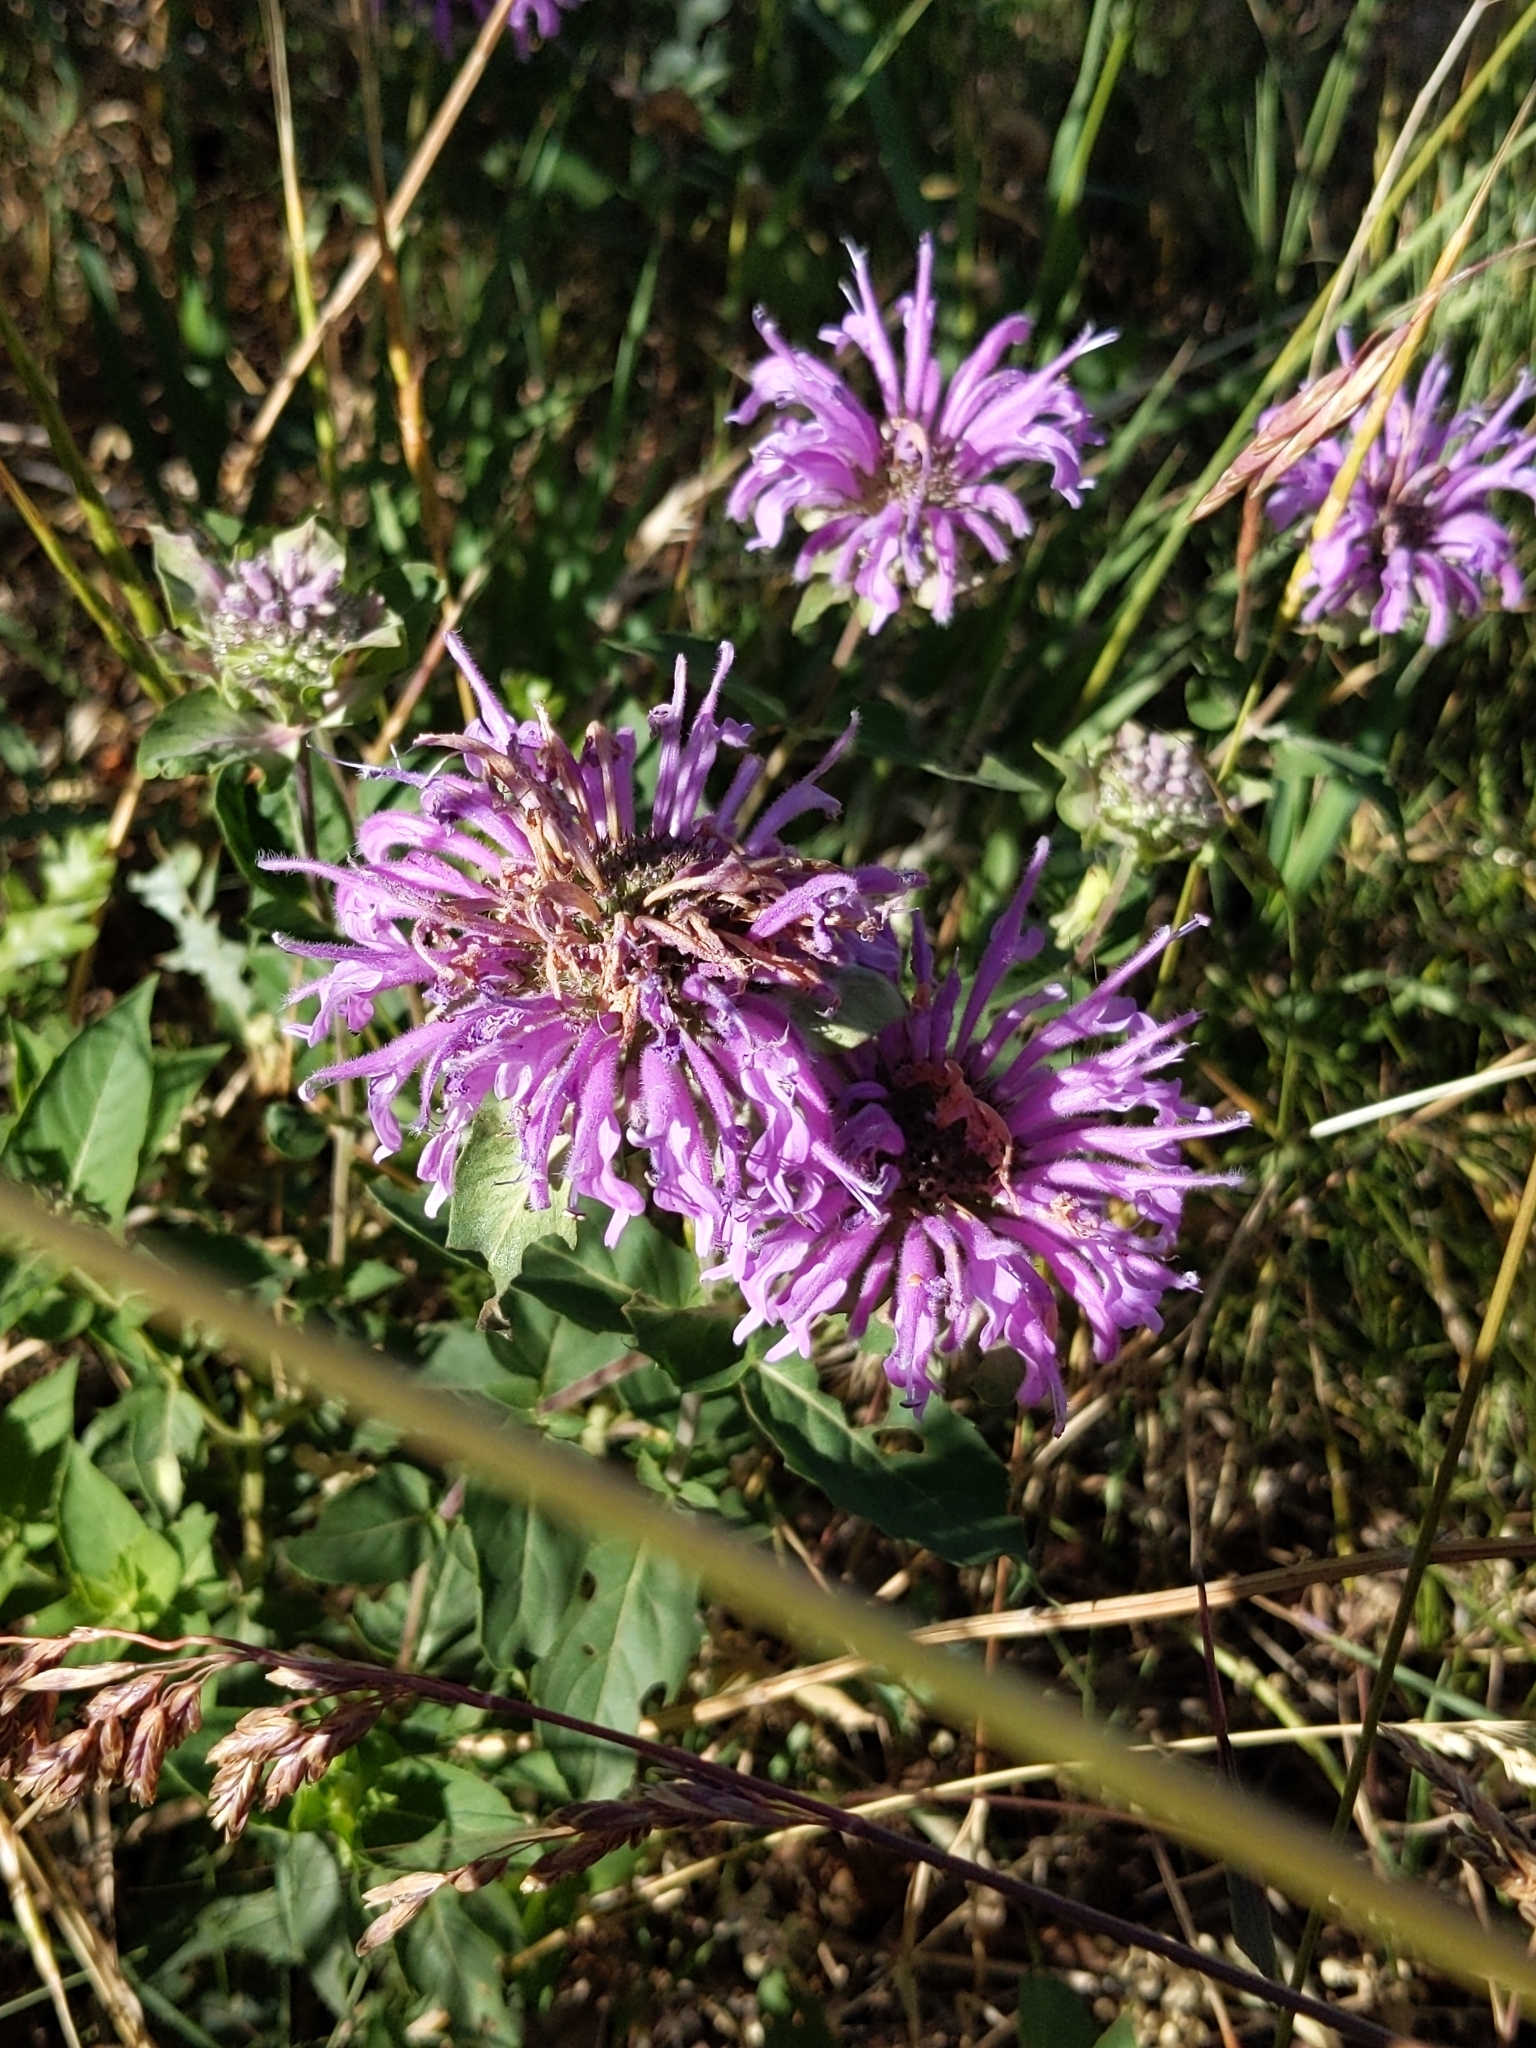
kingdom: Plantae
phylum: Tracheophyta
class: Magnoliopsida
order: Lamiales
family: Lamiaceae
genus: Monarda
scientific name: Monarda fistulosa
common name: Purple beebalm
